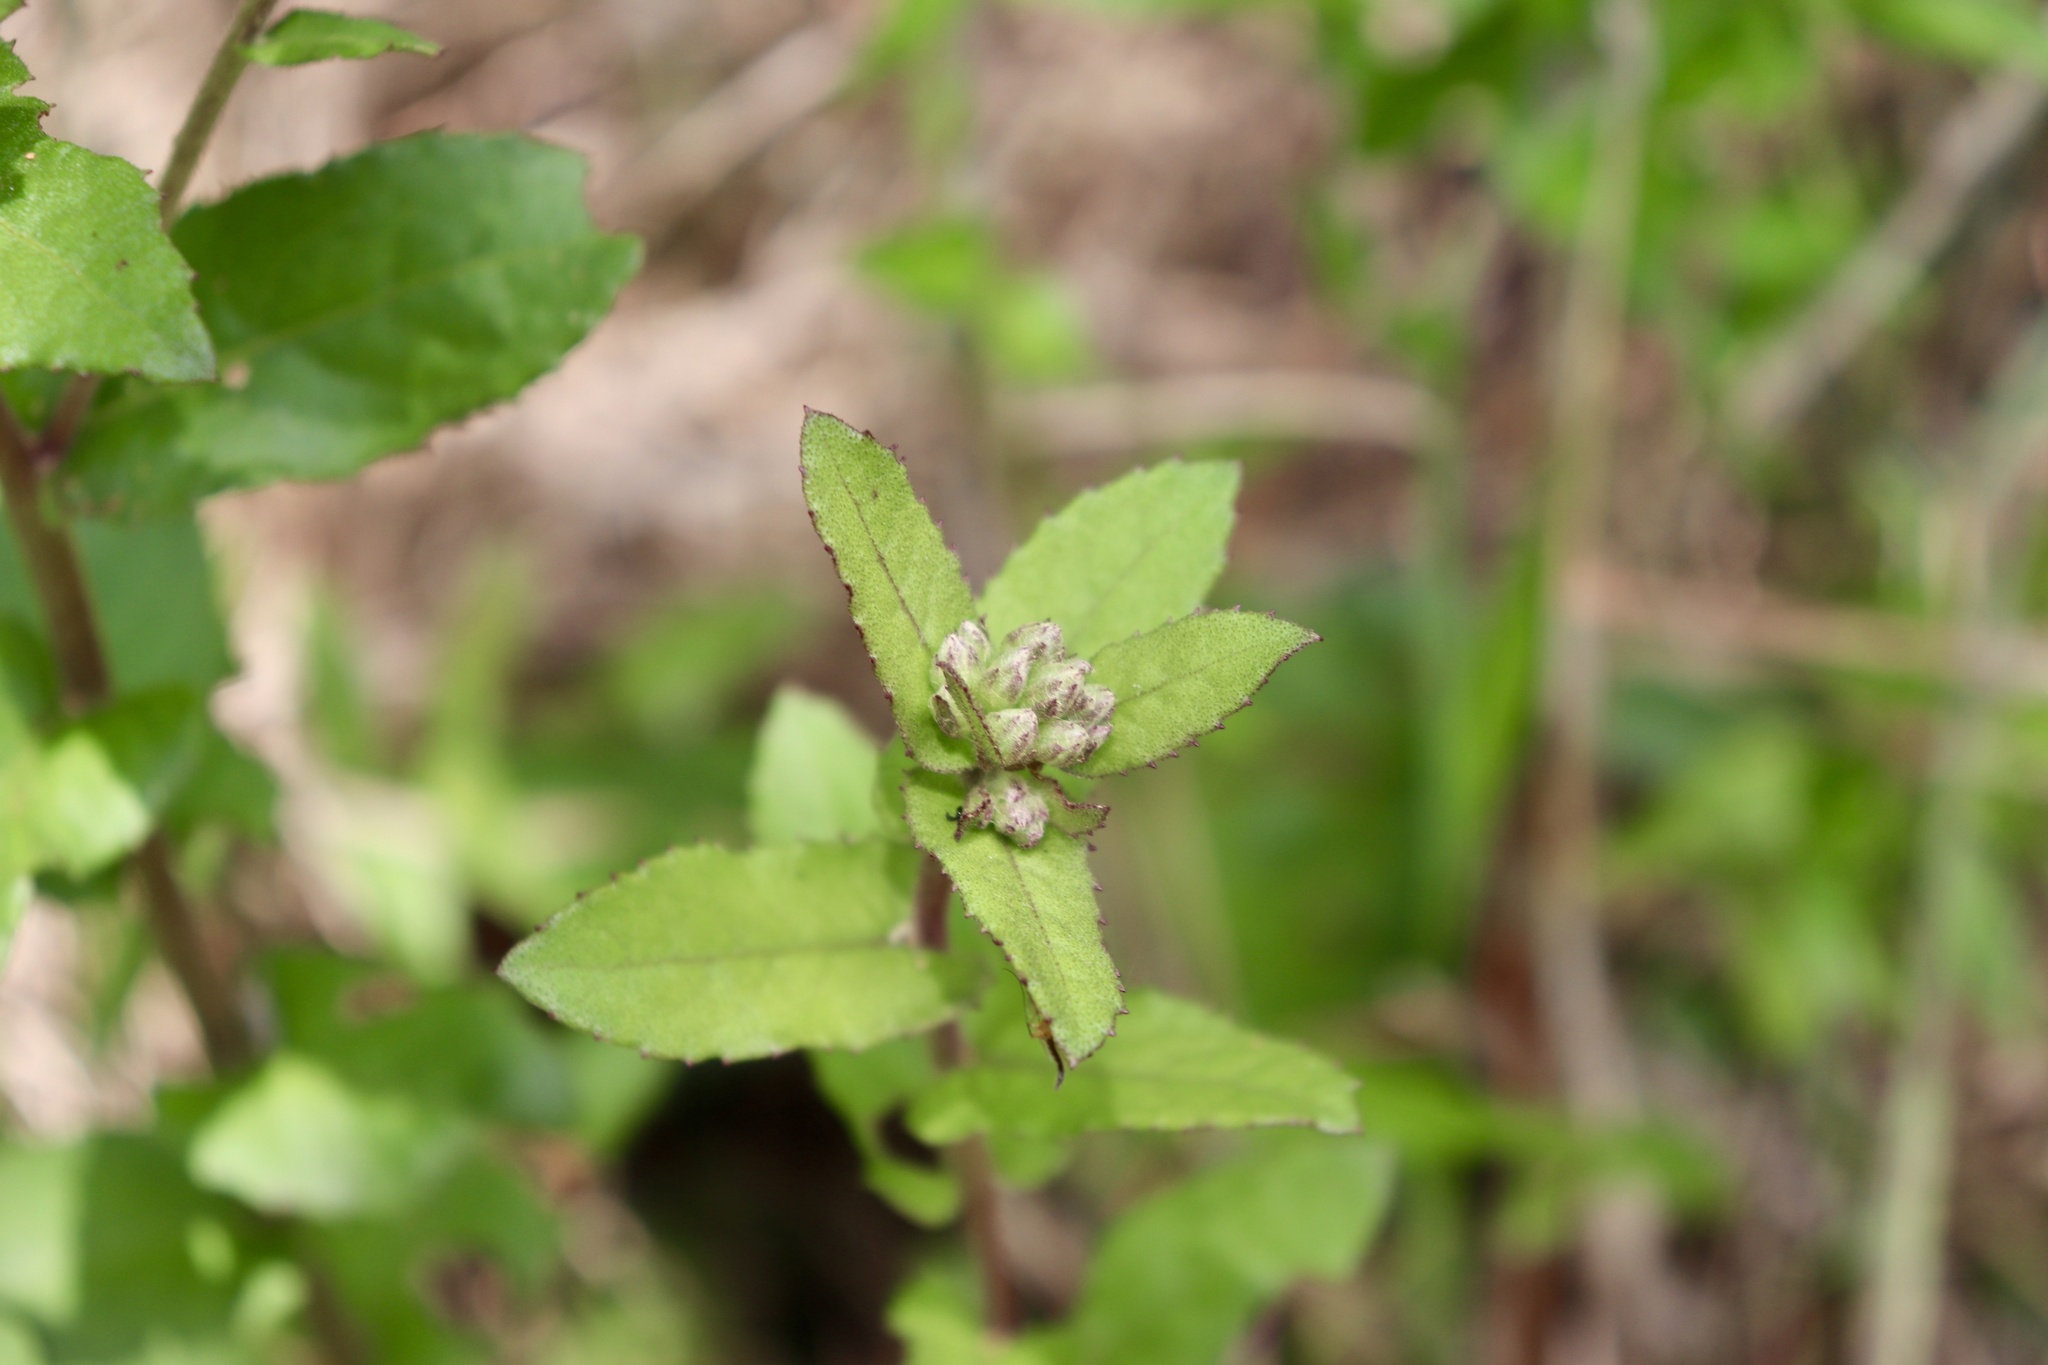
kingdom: Plantae
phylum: Tracheophyta
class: Magnoliopsida
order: Asterales
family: Asteraceae
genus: Pluchea
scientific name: Pluchea foetida
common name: Stinking camphorweed
